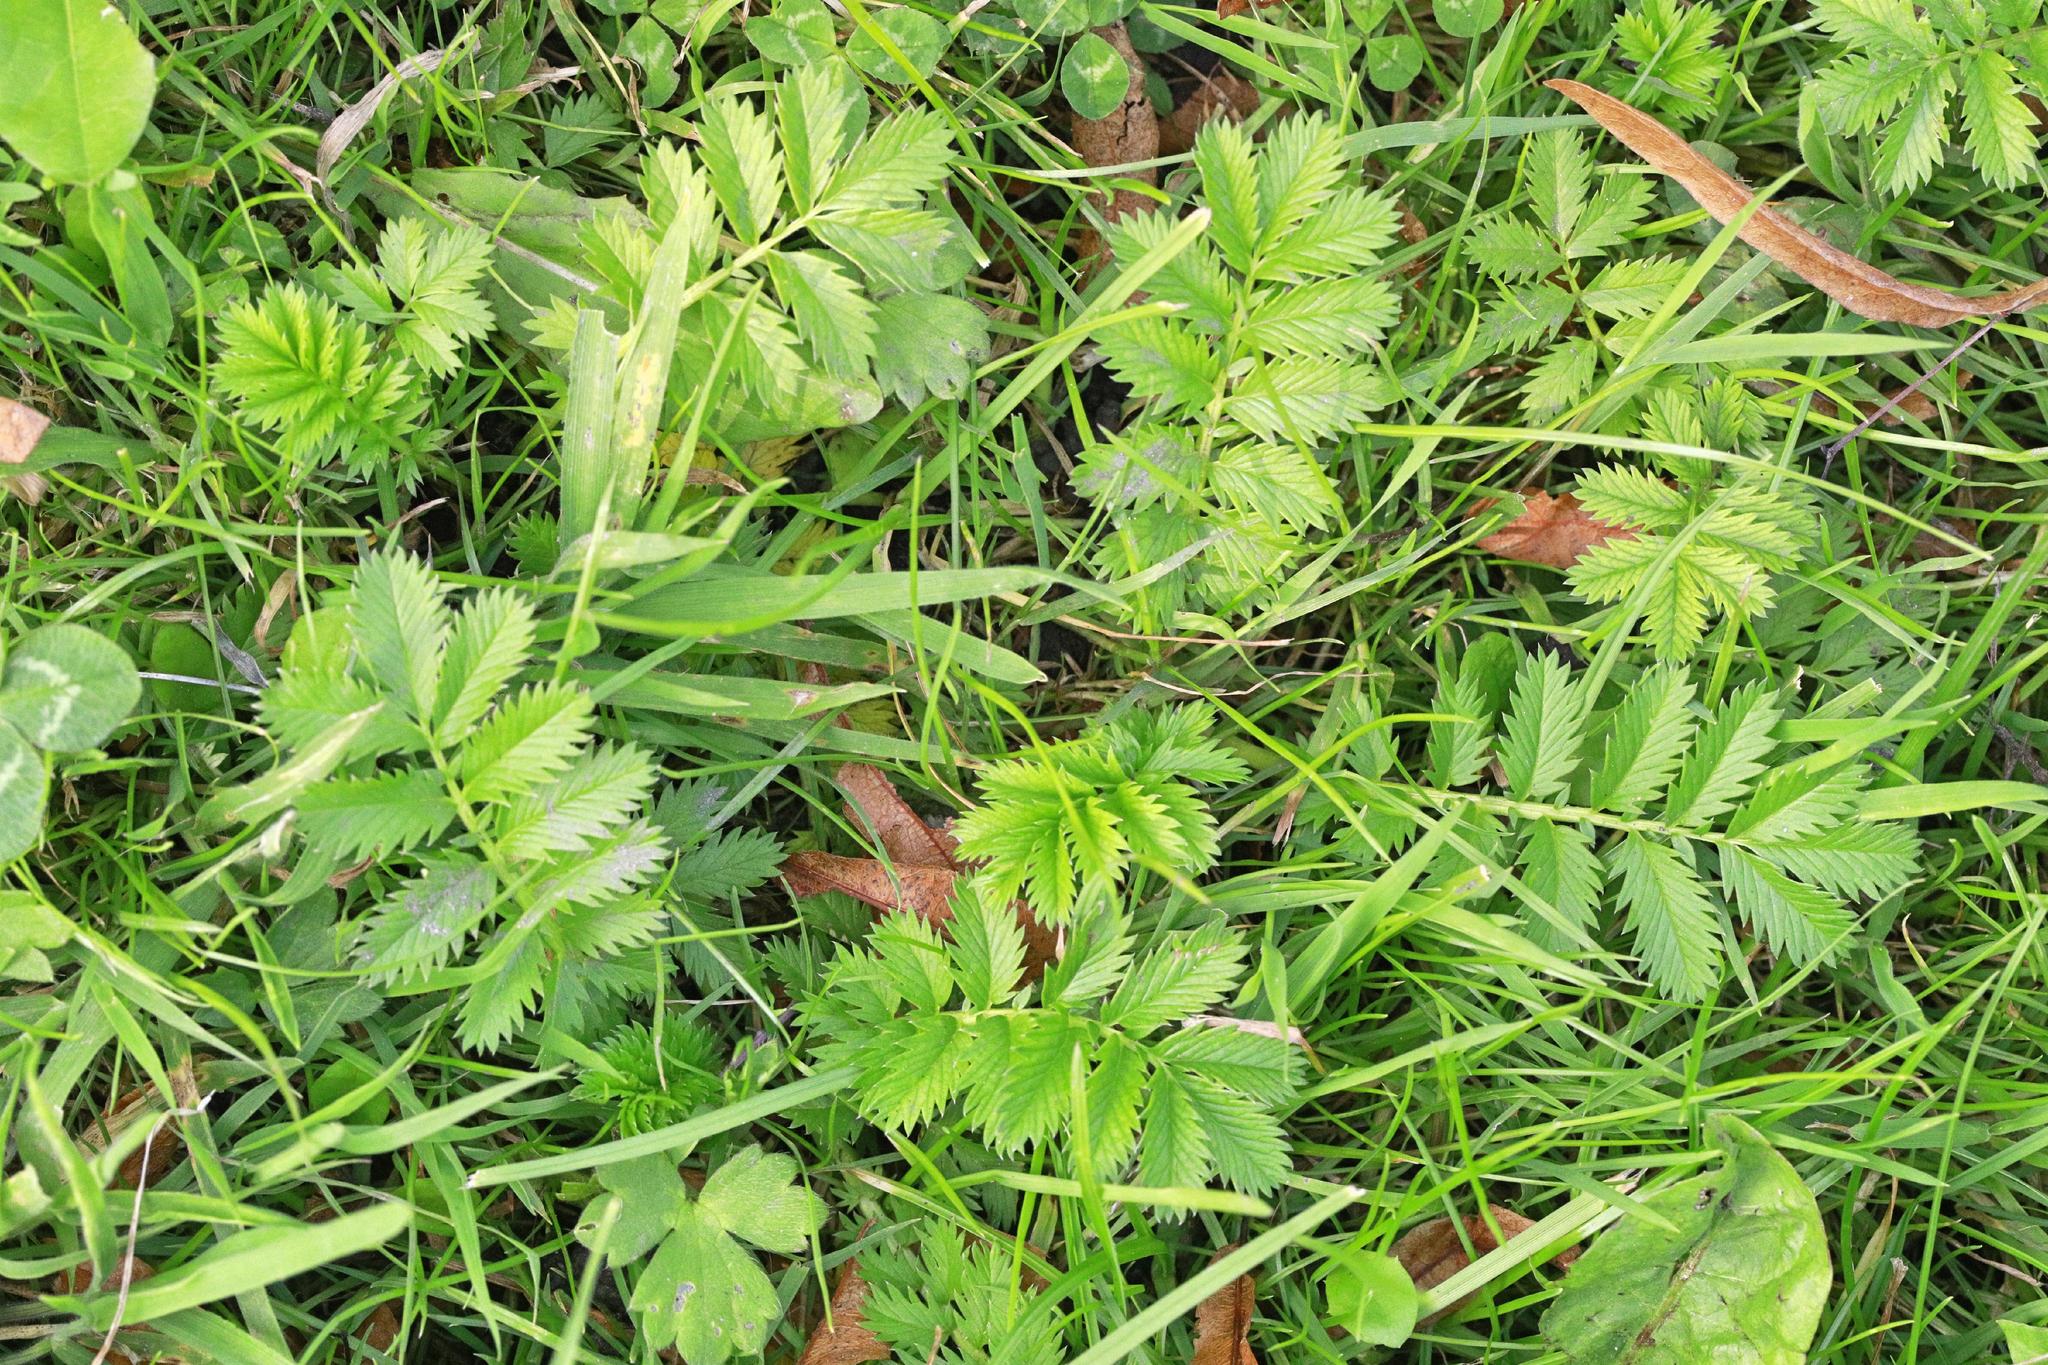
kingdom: Plantae
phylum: Tracheophyta
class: Magnoliopsida
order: Rosales
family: Rosaceae
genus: Argentina
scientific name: Argentina anserina
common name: Common silverweed
